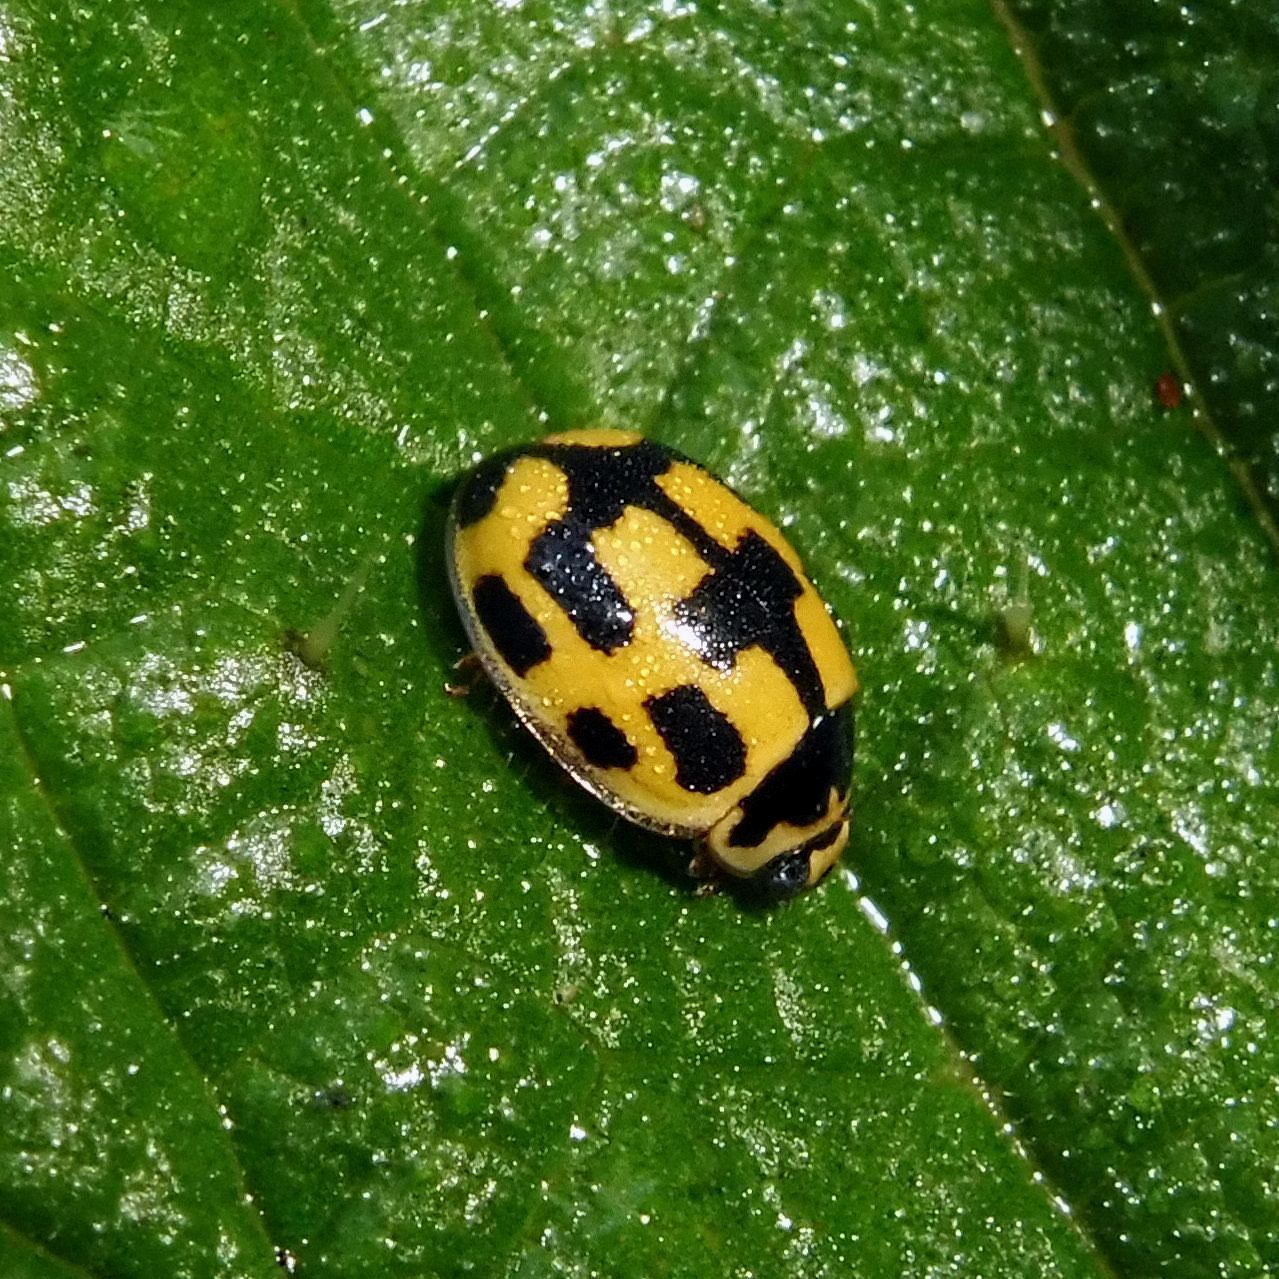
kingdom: Animalia
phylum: Arthropoda
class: Insecta
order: Coleoptera
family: Coccinellidae
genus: Propylaea
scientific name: Propylaea quatuordecimpunctata
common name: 14-spotted ladybird beetle
